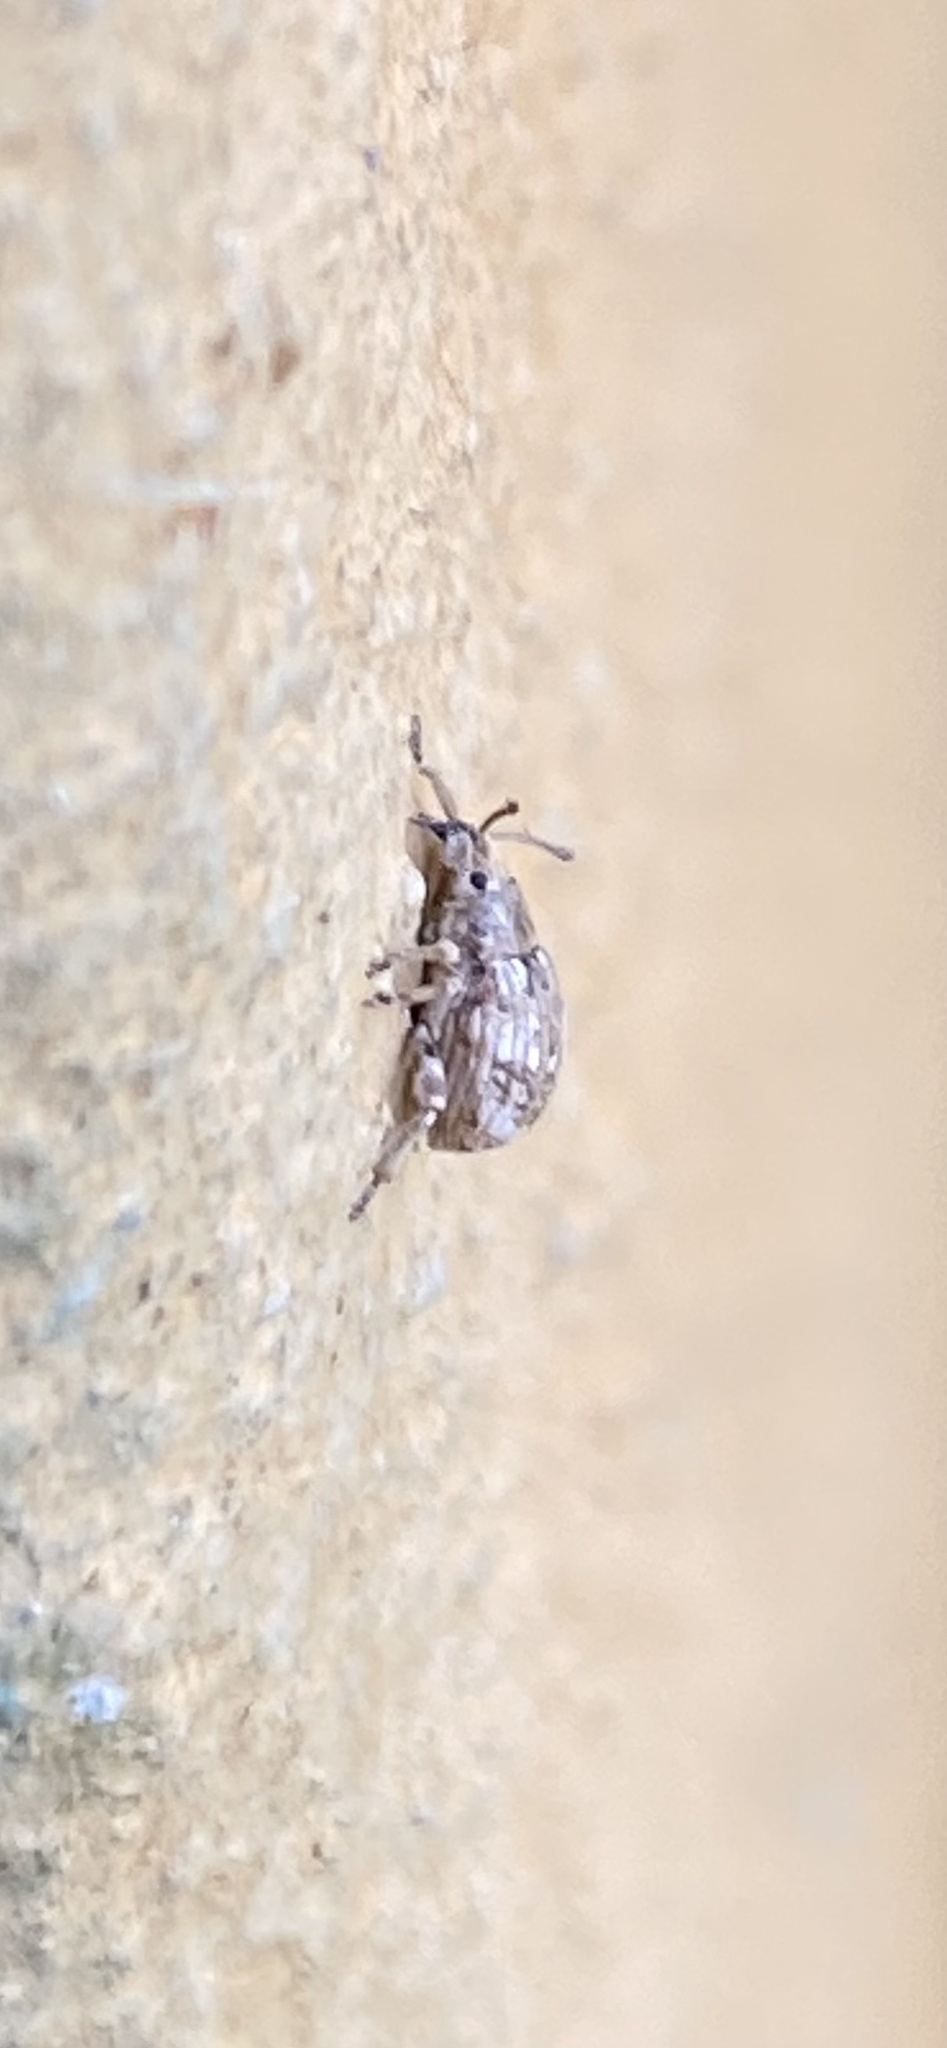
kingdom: Animalia
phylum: Arthropoda
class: Insecta
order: Coleoptera
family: Curculionidae
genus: Ellimenistes
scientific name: Ellimenistes laesicollis
